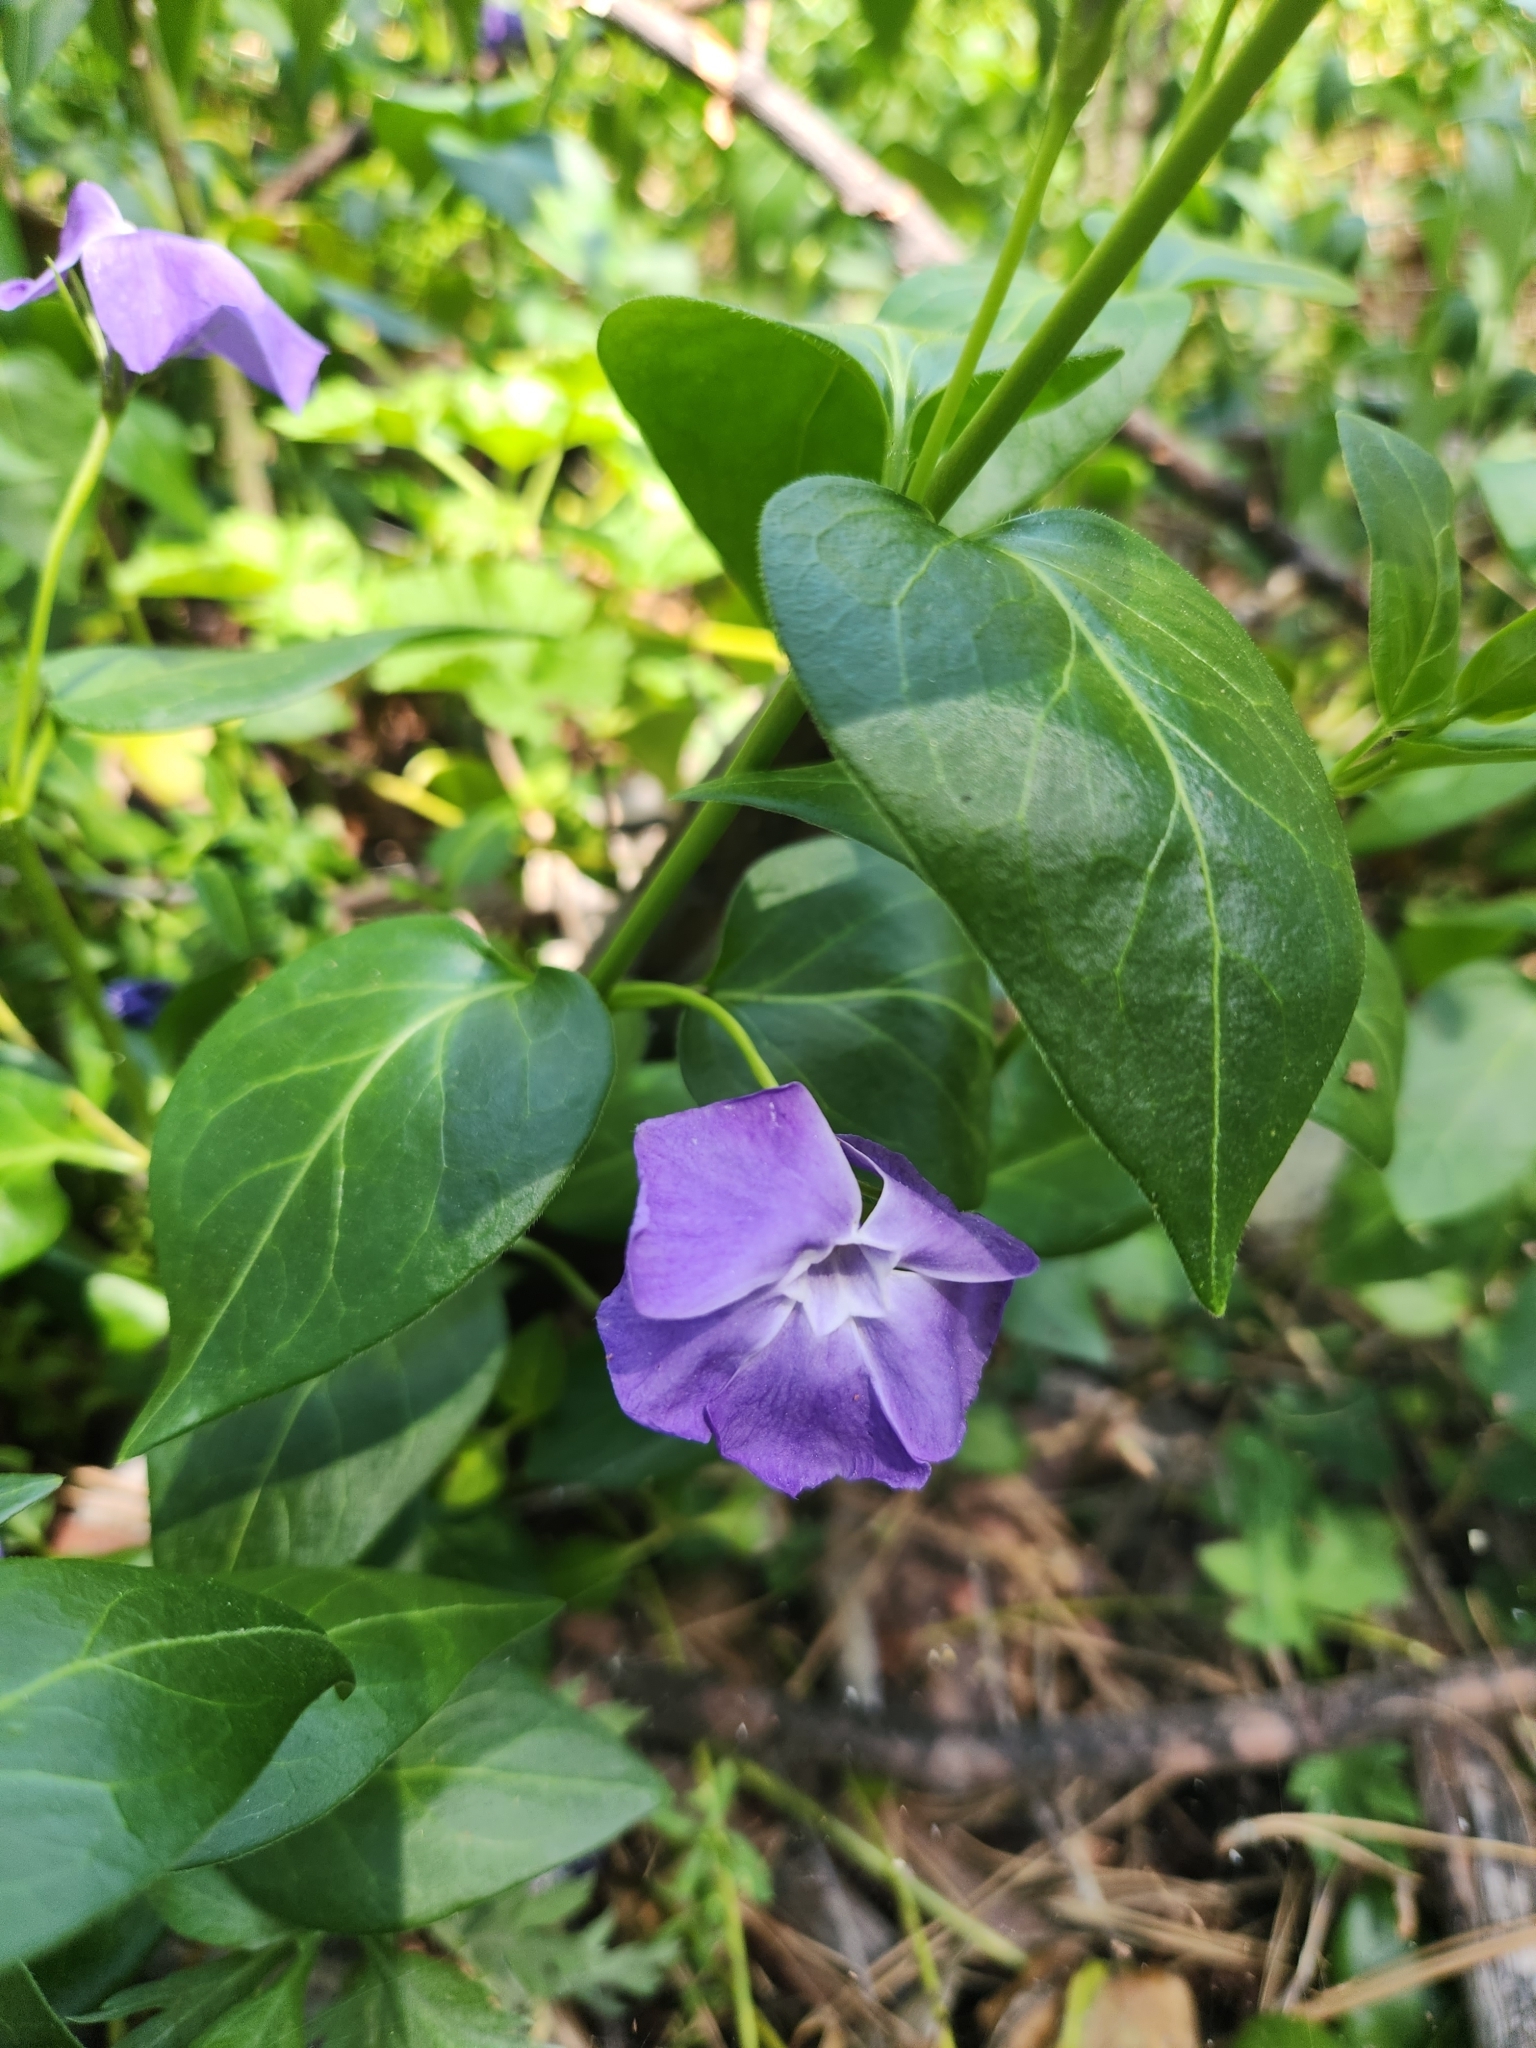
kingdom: Plantae
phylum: Tracheophyta
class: Magnoliopsida
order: Gentianales
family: Apocynaceae
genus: Vinca
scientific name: Vinca major
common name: Greater periwinkle
